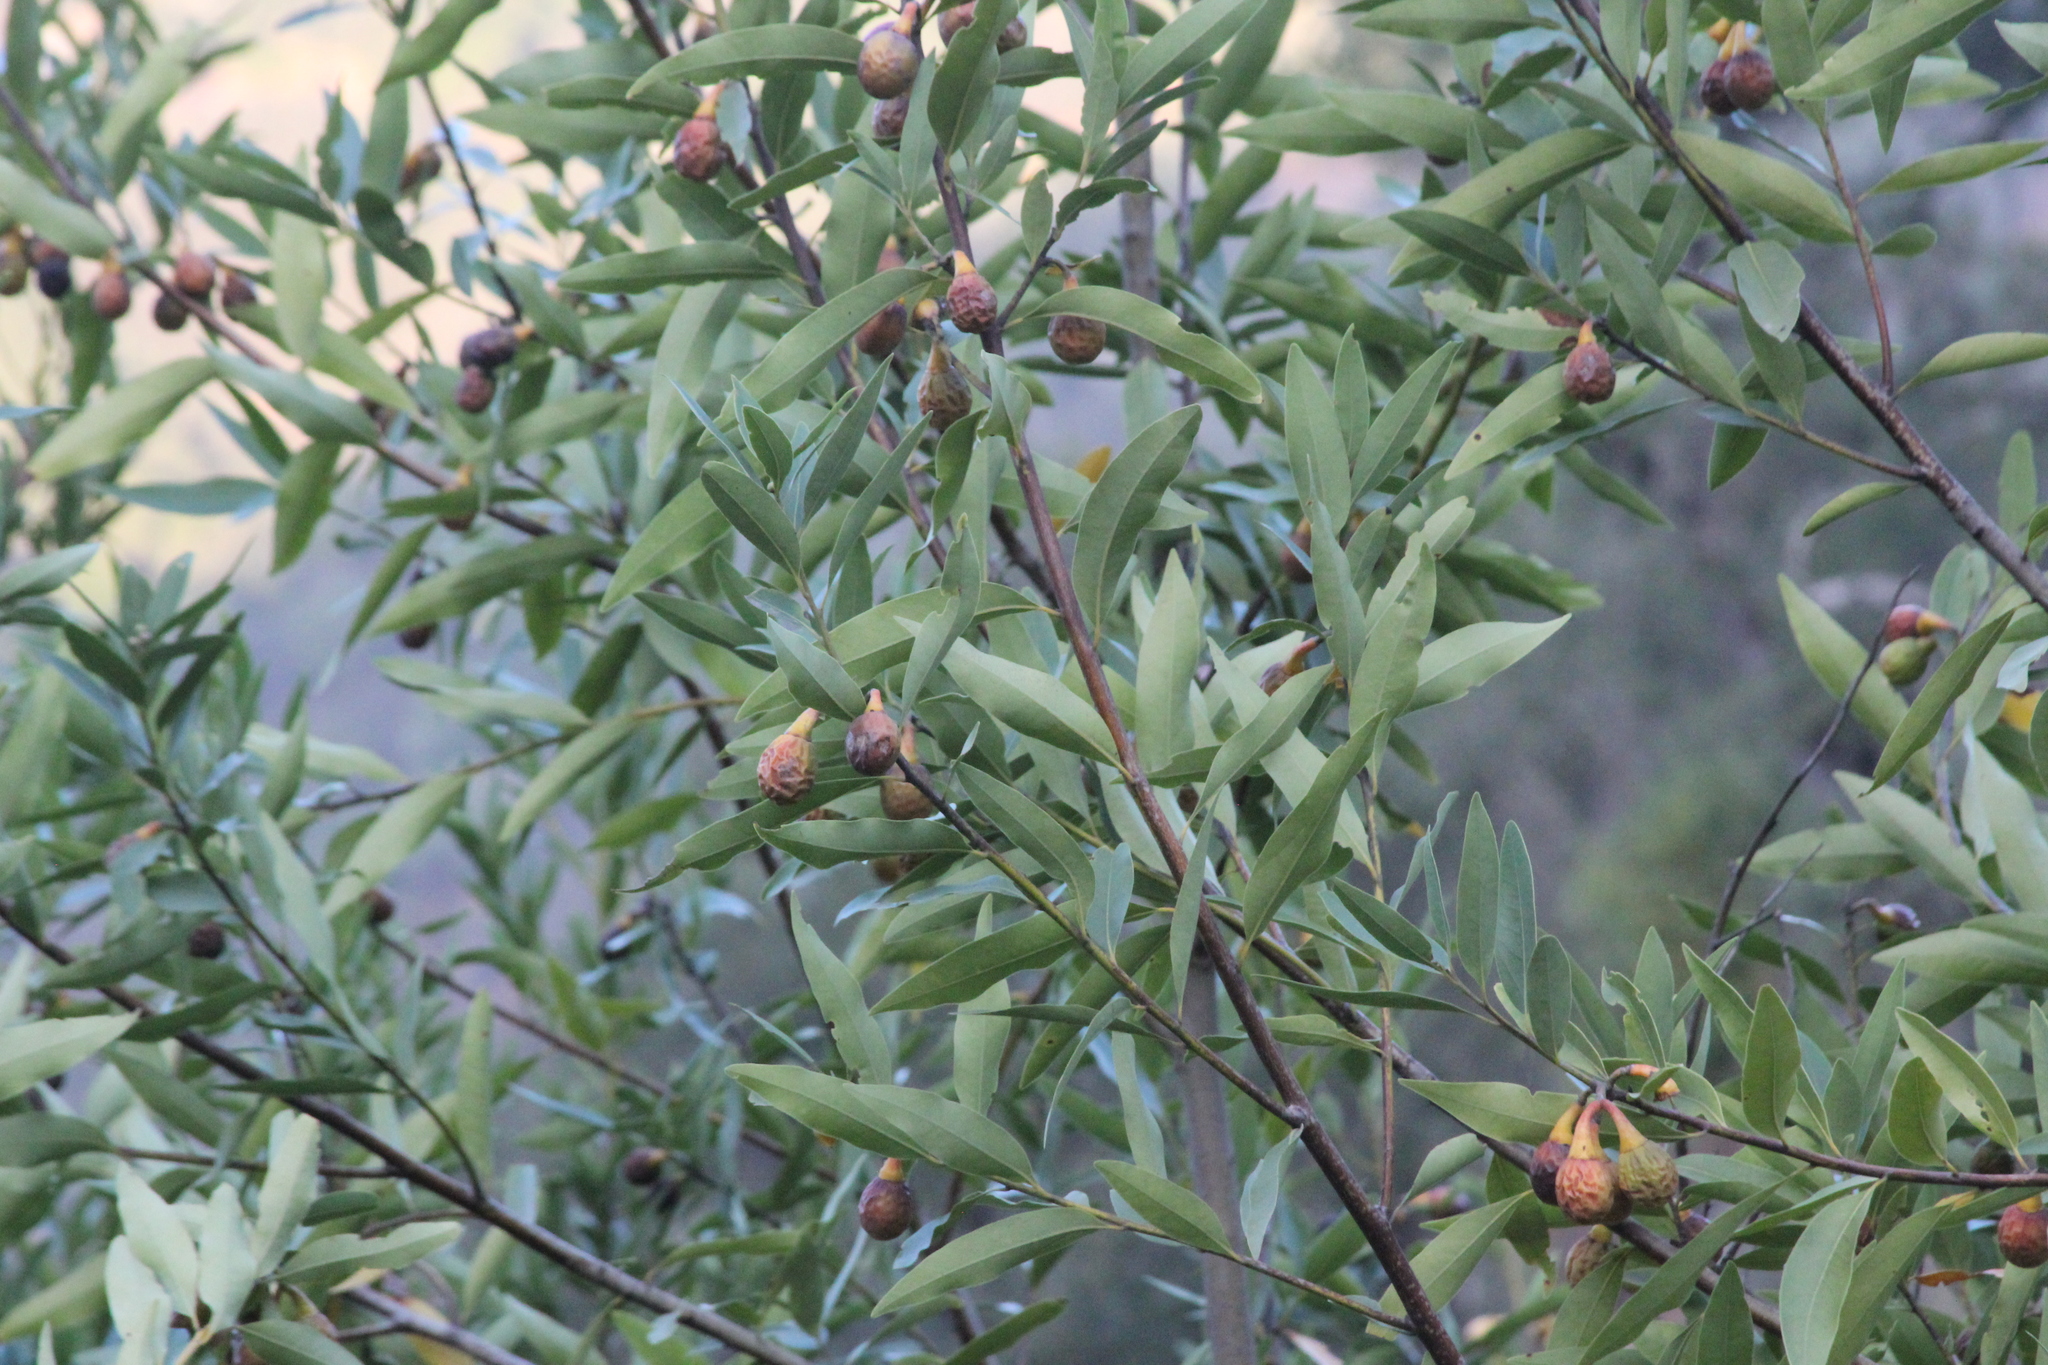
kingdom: Plantae
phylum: Tracheophyta
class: Magnoliopsida
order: Laurales
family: Lauraceae
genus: Umbellularia
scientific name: Umbellularia californica
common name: California bay
